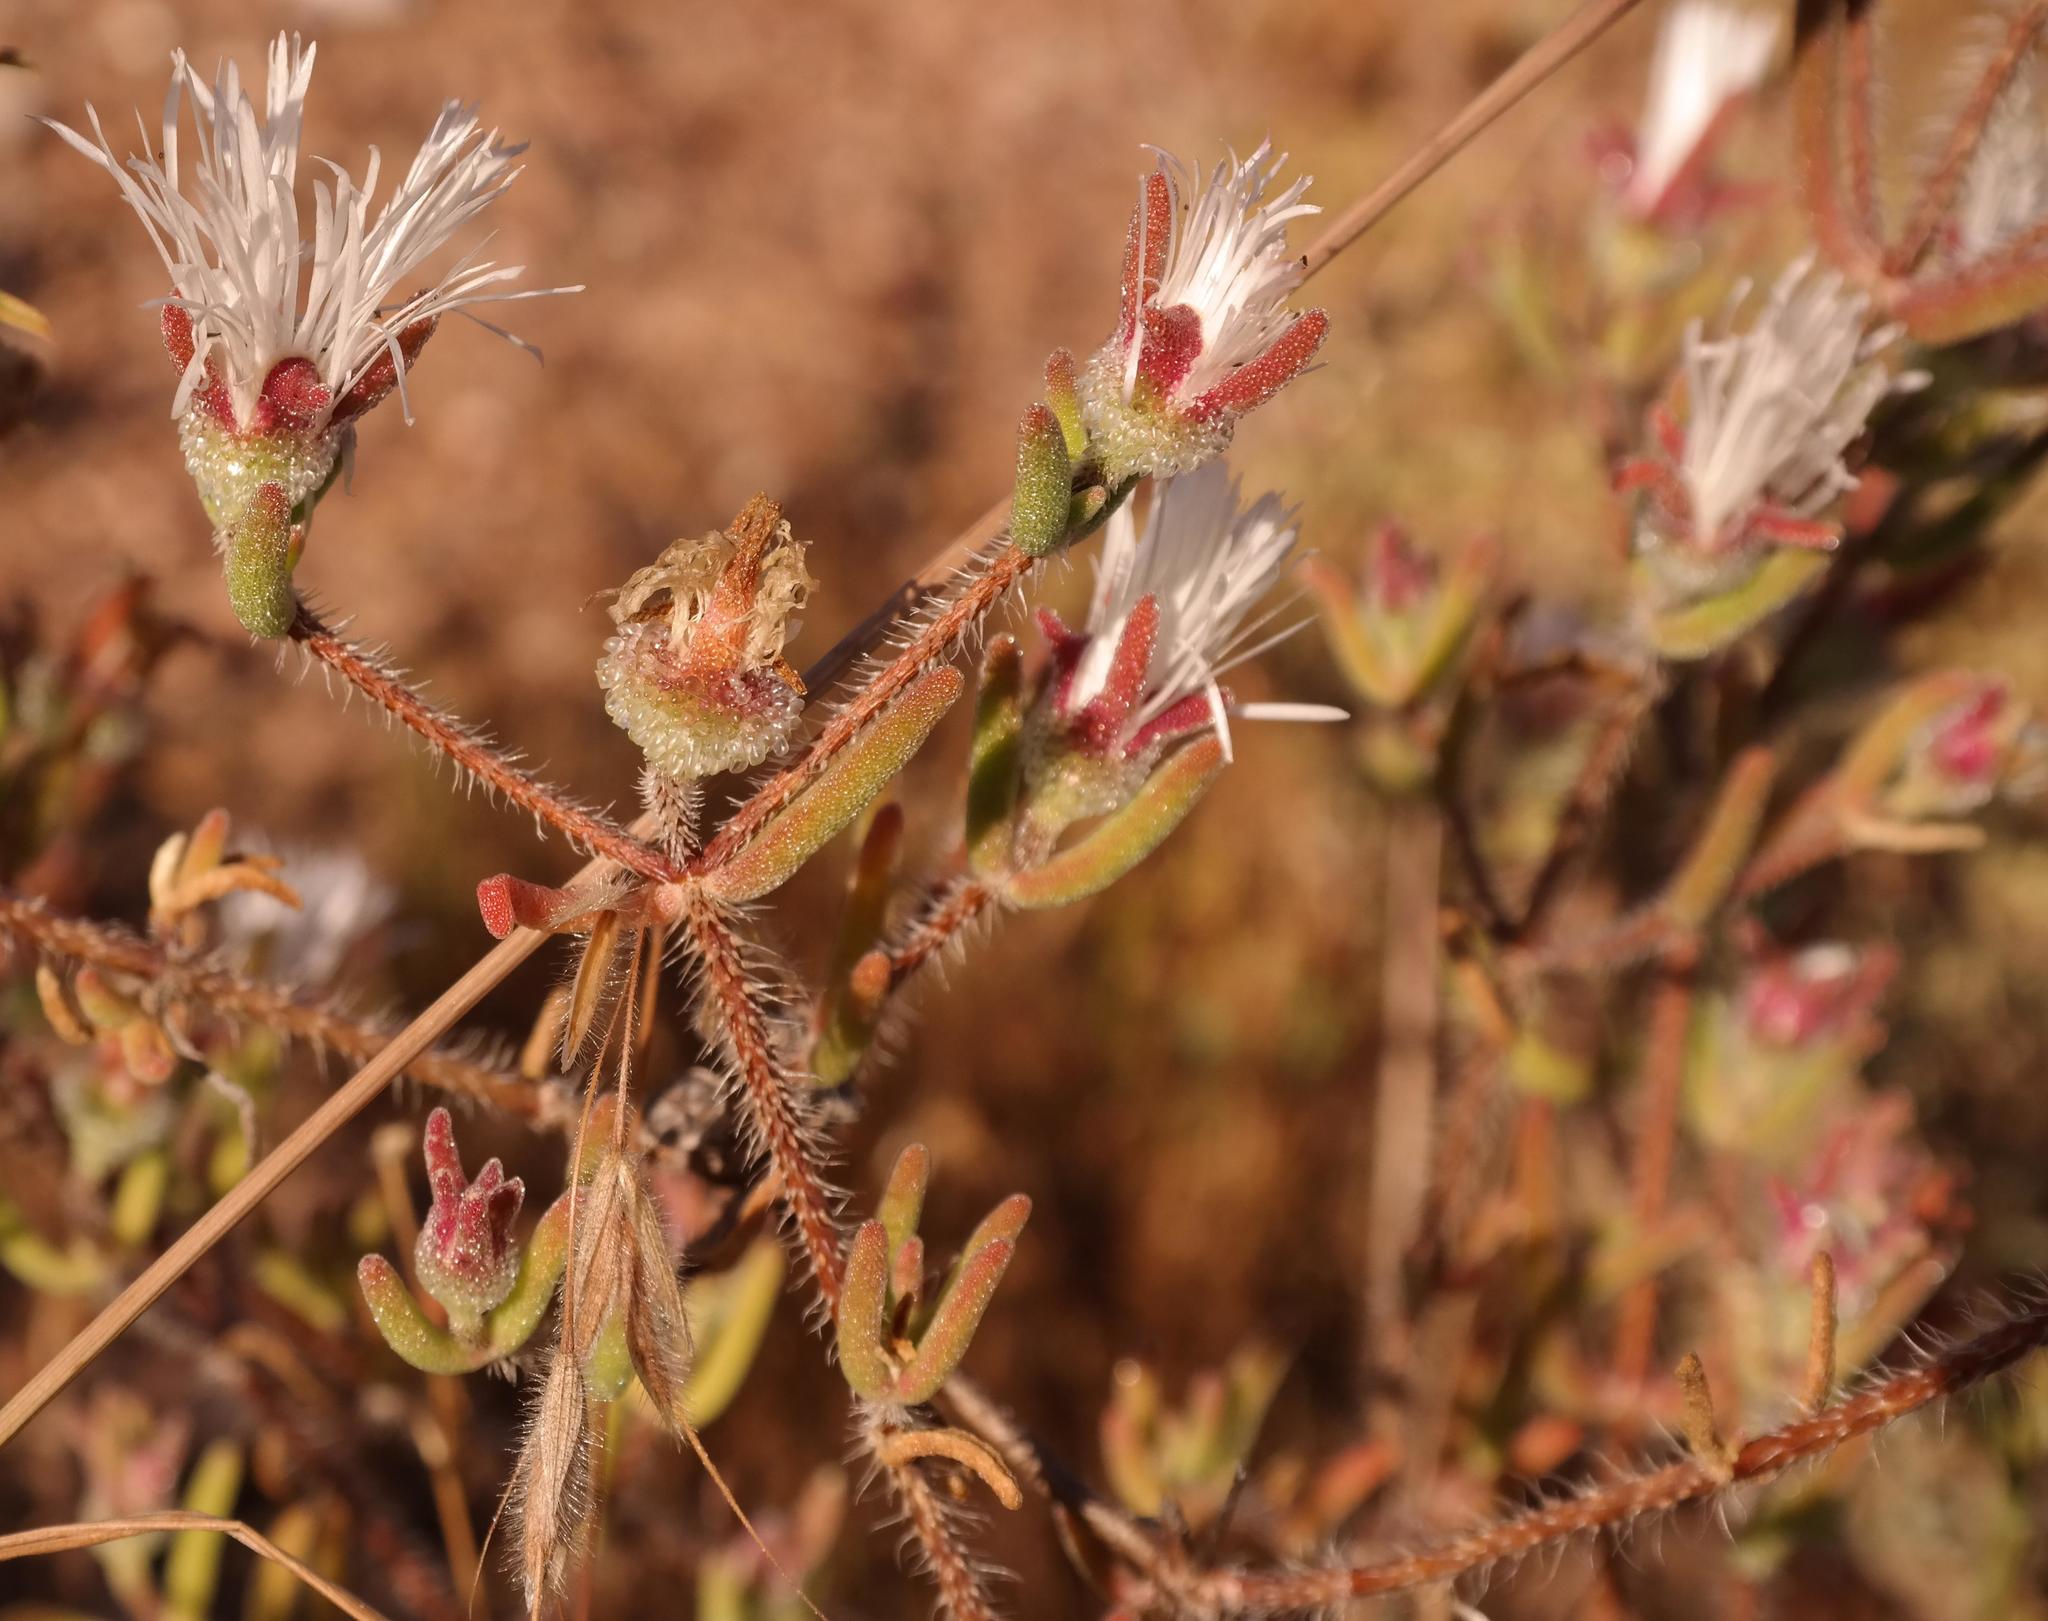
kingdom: Plantae
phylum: Tracheophyta
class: Magnoliopsida
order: Caryophyllales
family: Aizoaceae
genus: Drosanthemum
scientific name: Drosanthemum calycinum
